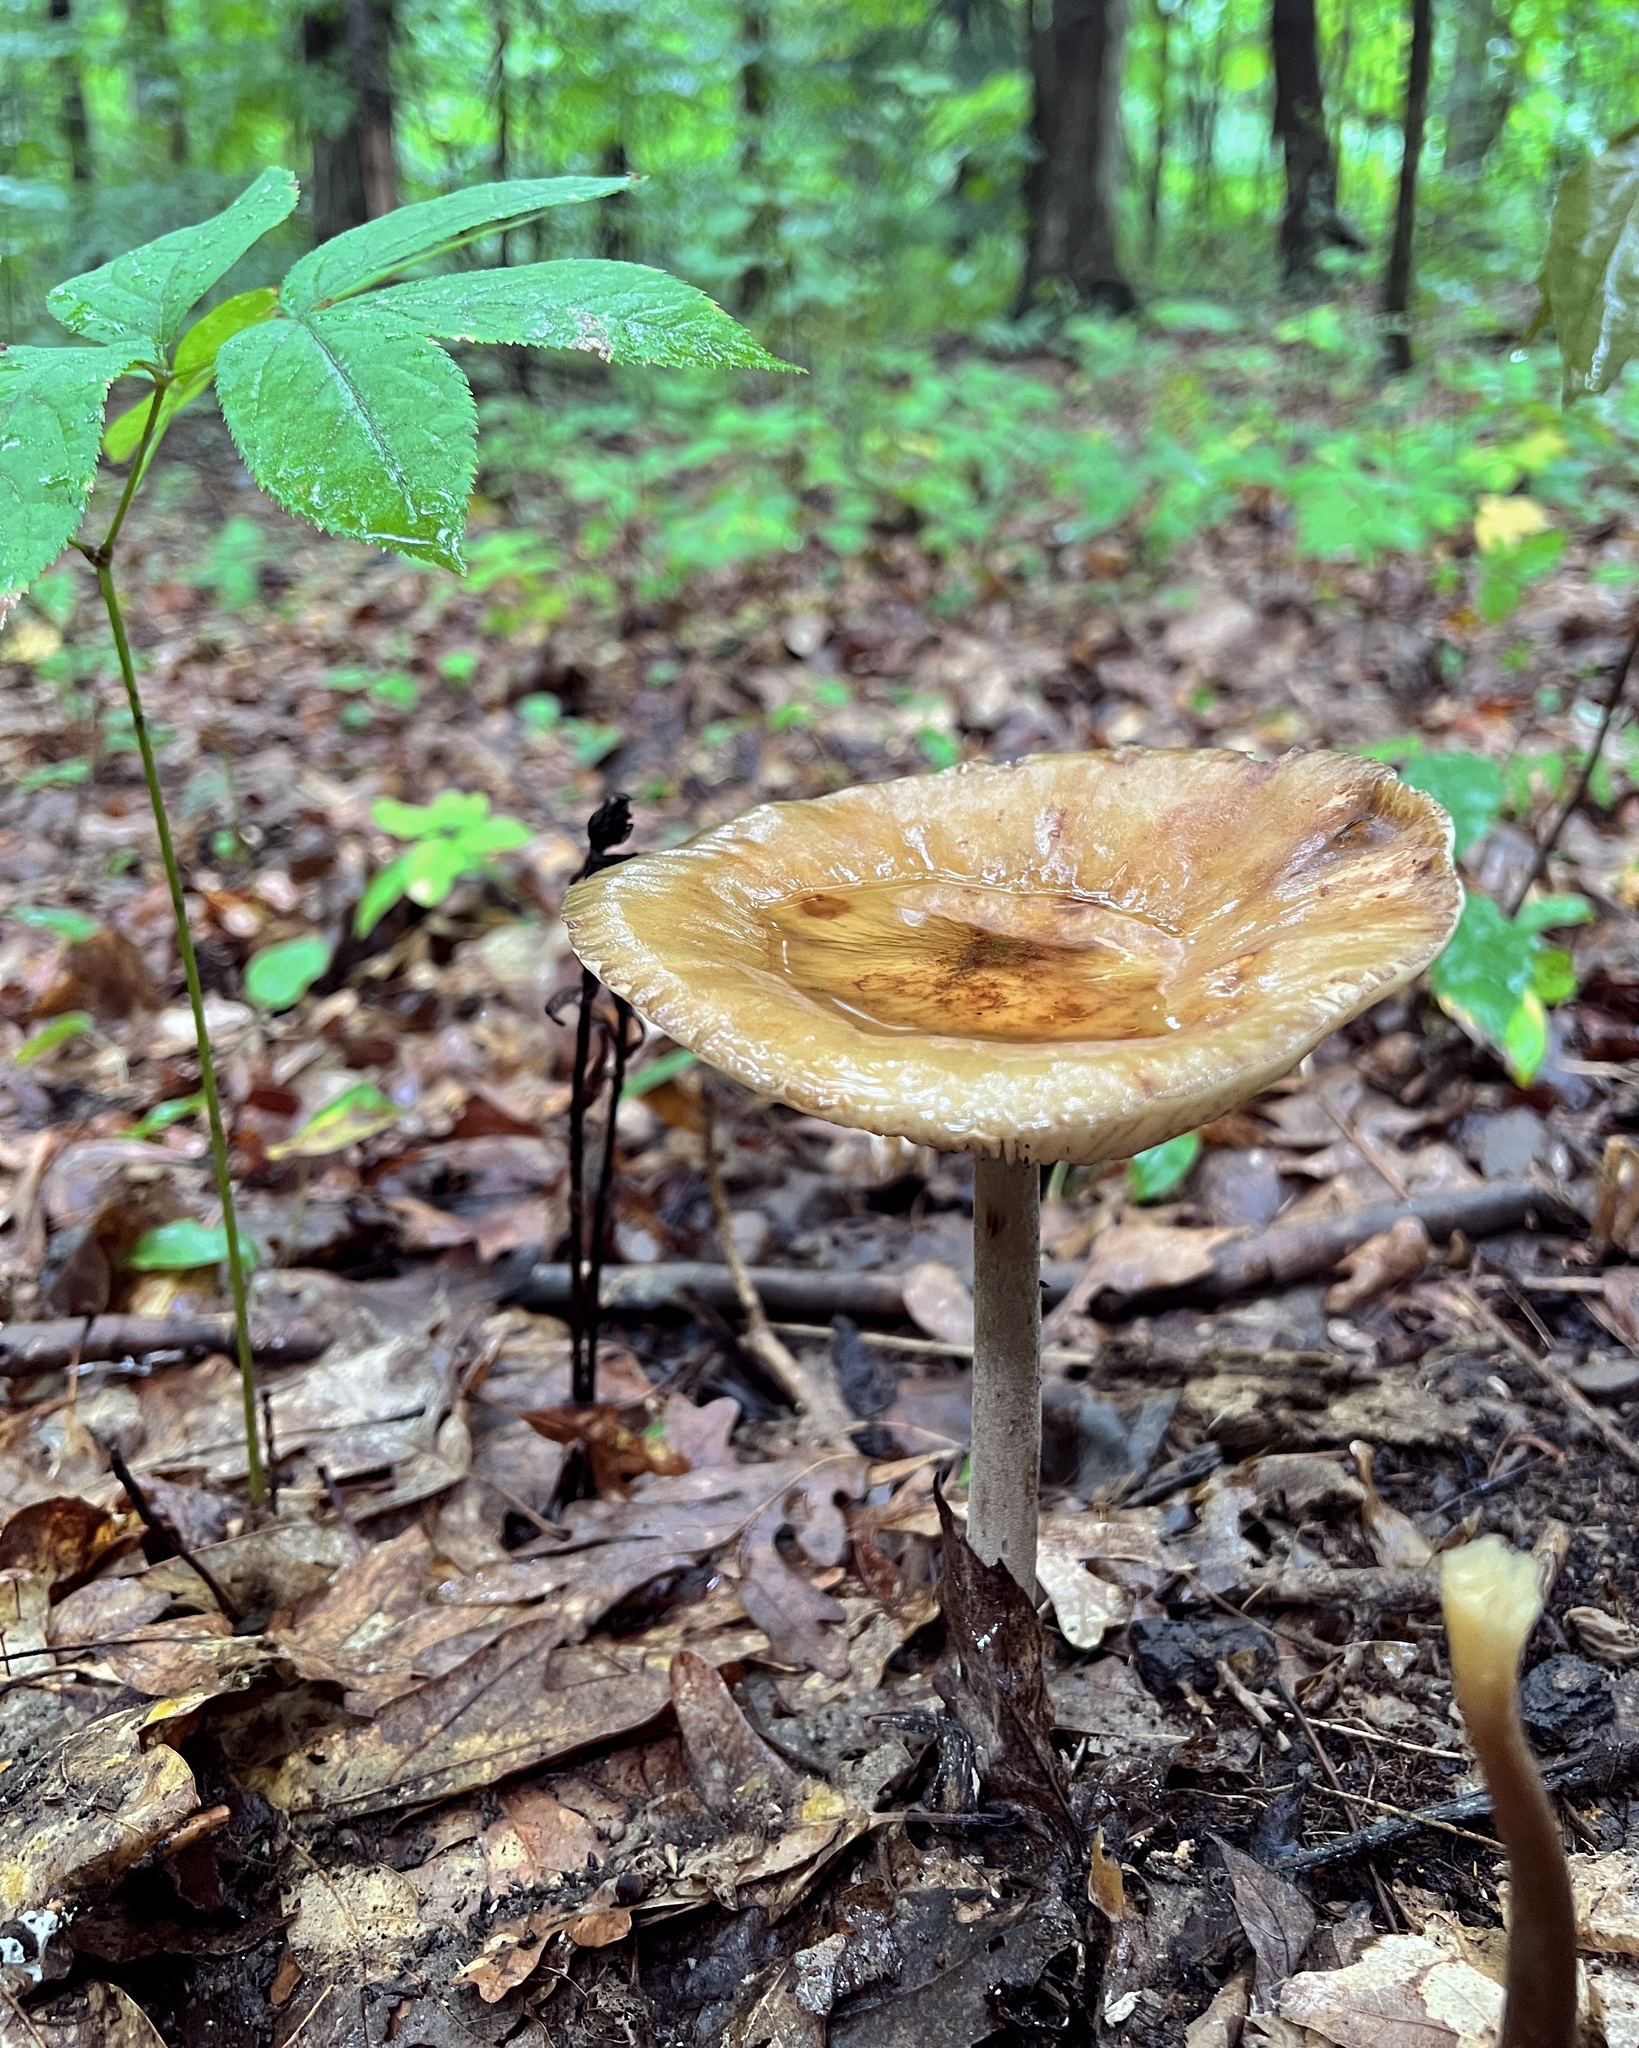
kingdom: Fungi
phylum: Basidiomycota
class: Agaricomycetes
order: Agaricales
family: Physalacriaceae
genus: Hymenopellis
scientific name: Hymenopellis furfuracea
